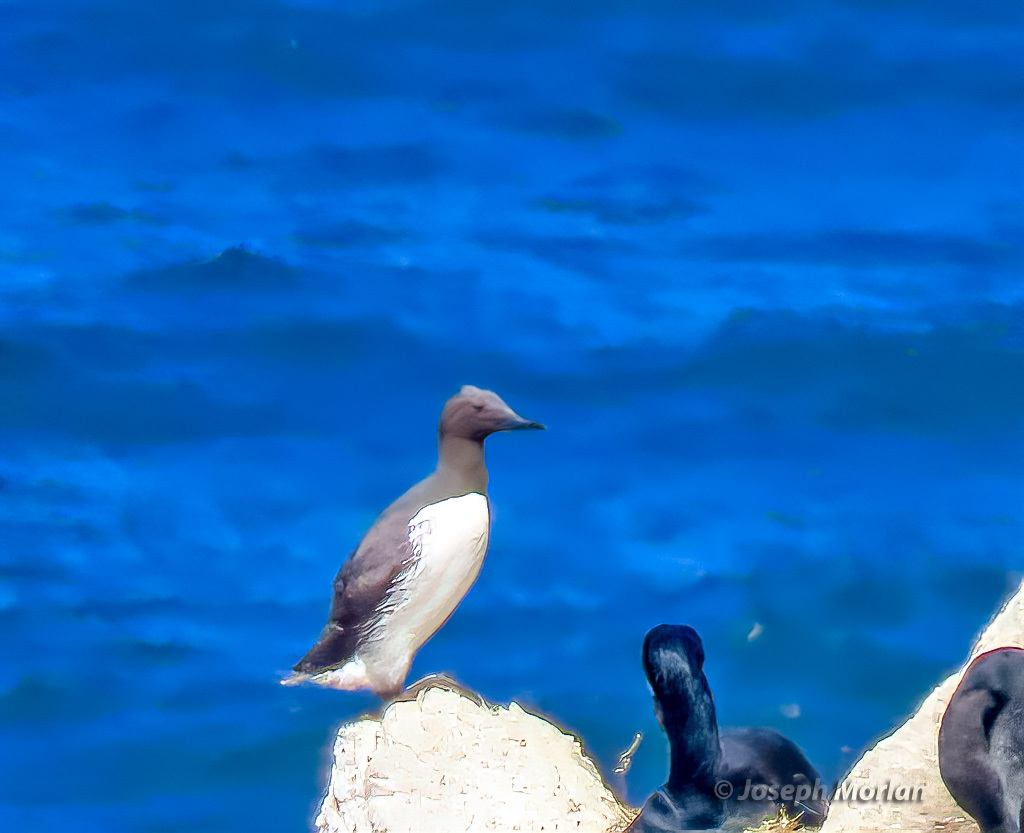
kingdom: Animalia
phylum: Chordata
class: Aves
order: Charadriiformes
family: Alcidae
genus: Uria
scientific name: Uria aalge
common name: Common murre
